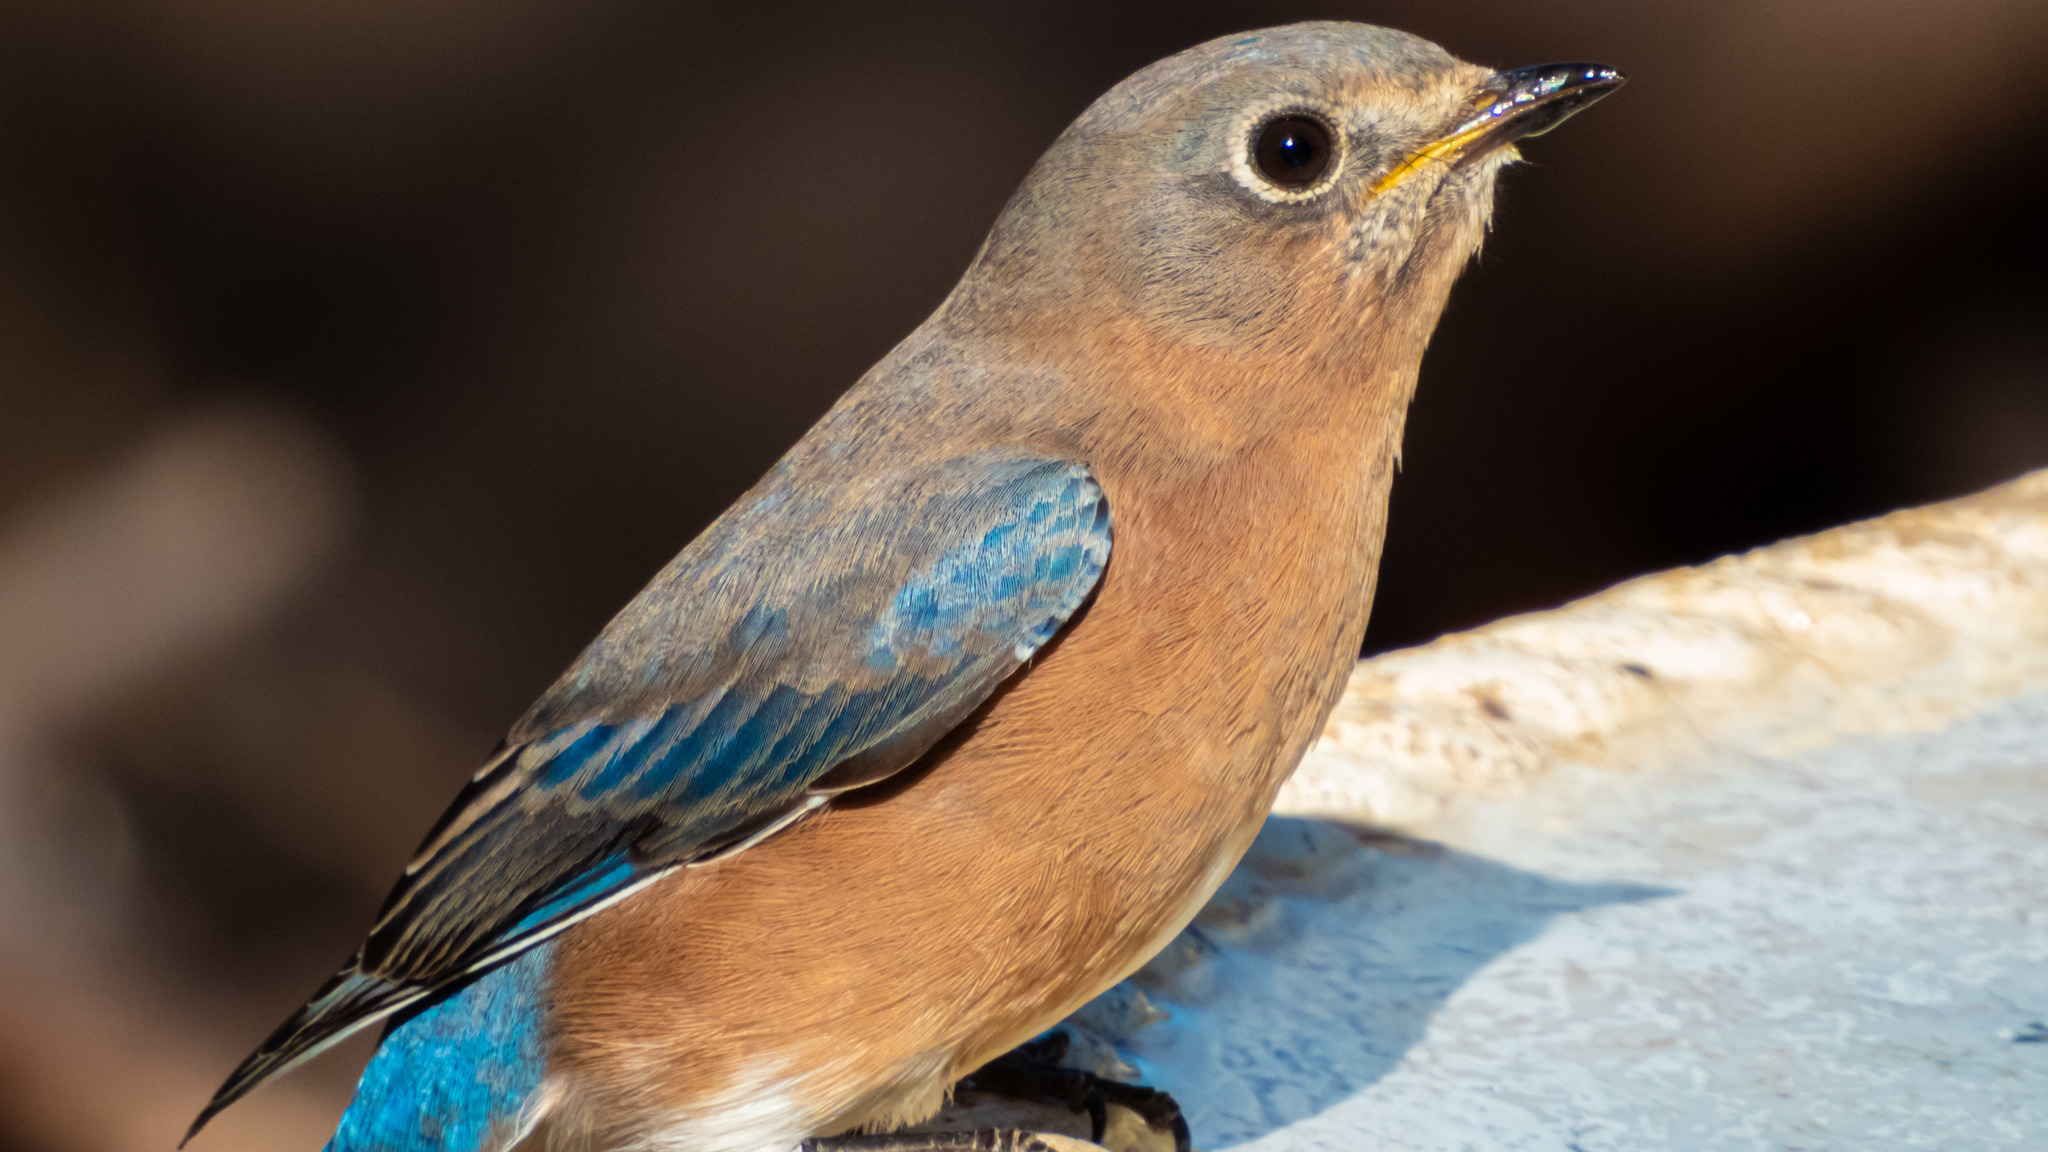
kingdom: Animalia
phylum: Chordata
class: Aves
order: Passeriformes
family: Turdidae
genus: Sialia
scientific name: Sialia sialis
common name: Eastern bluebird
